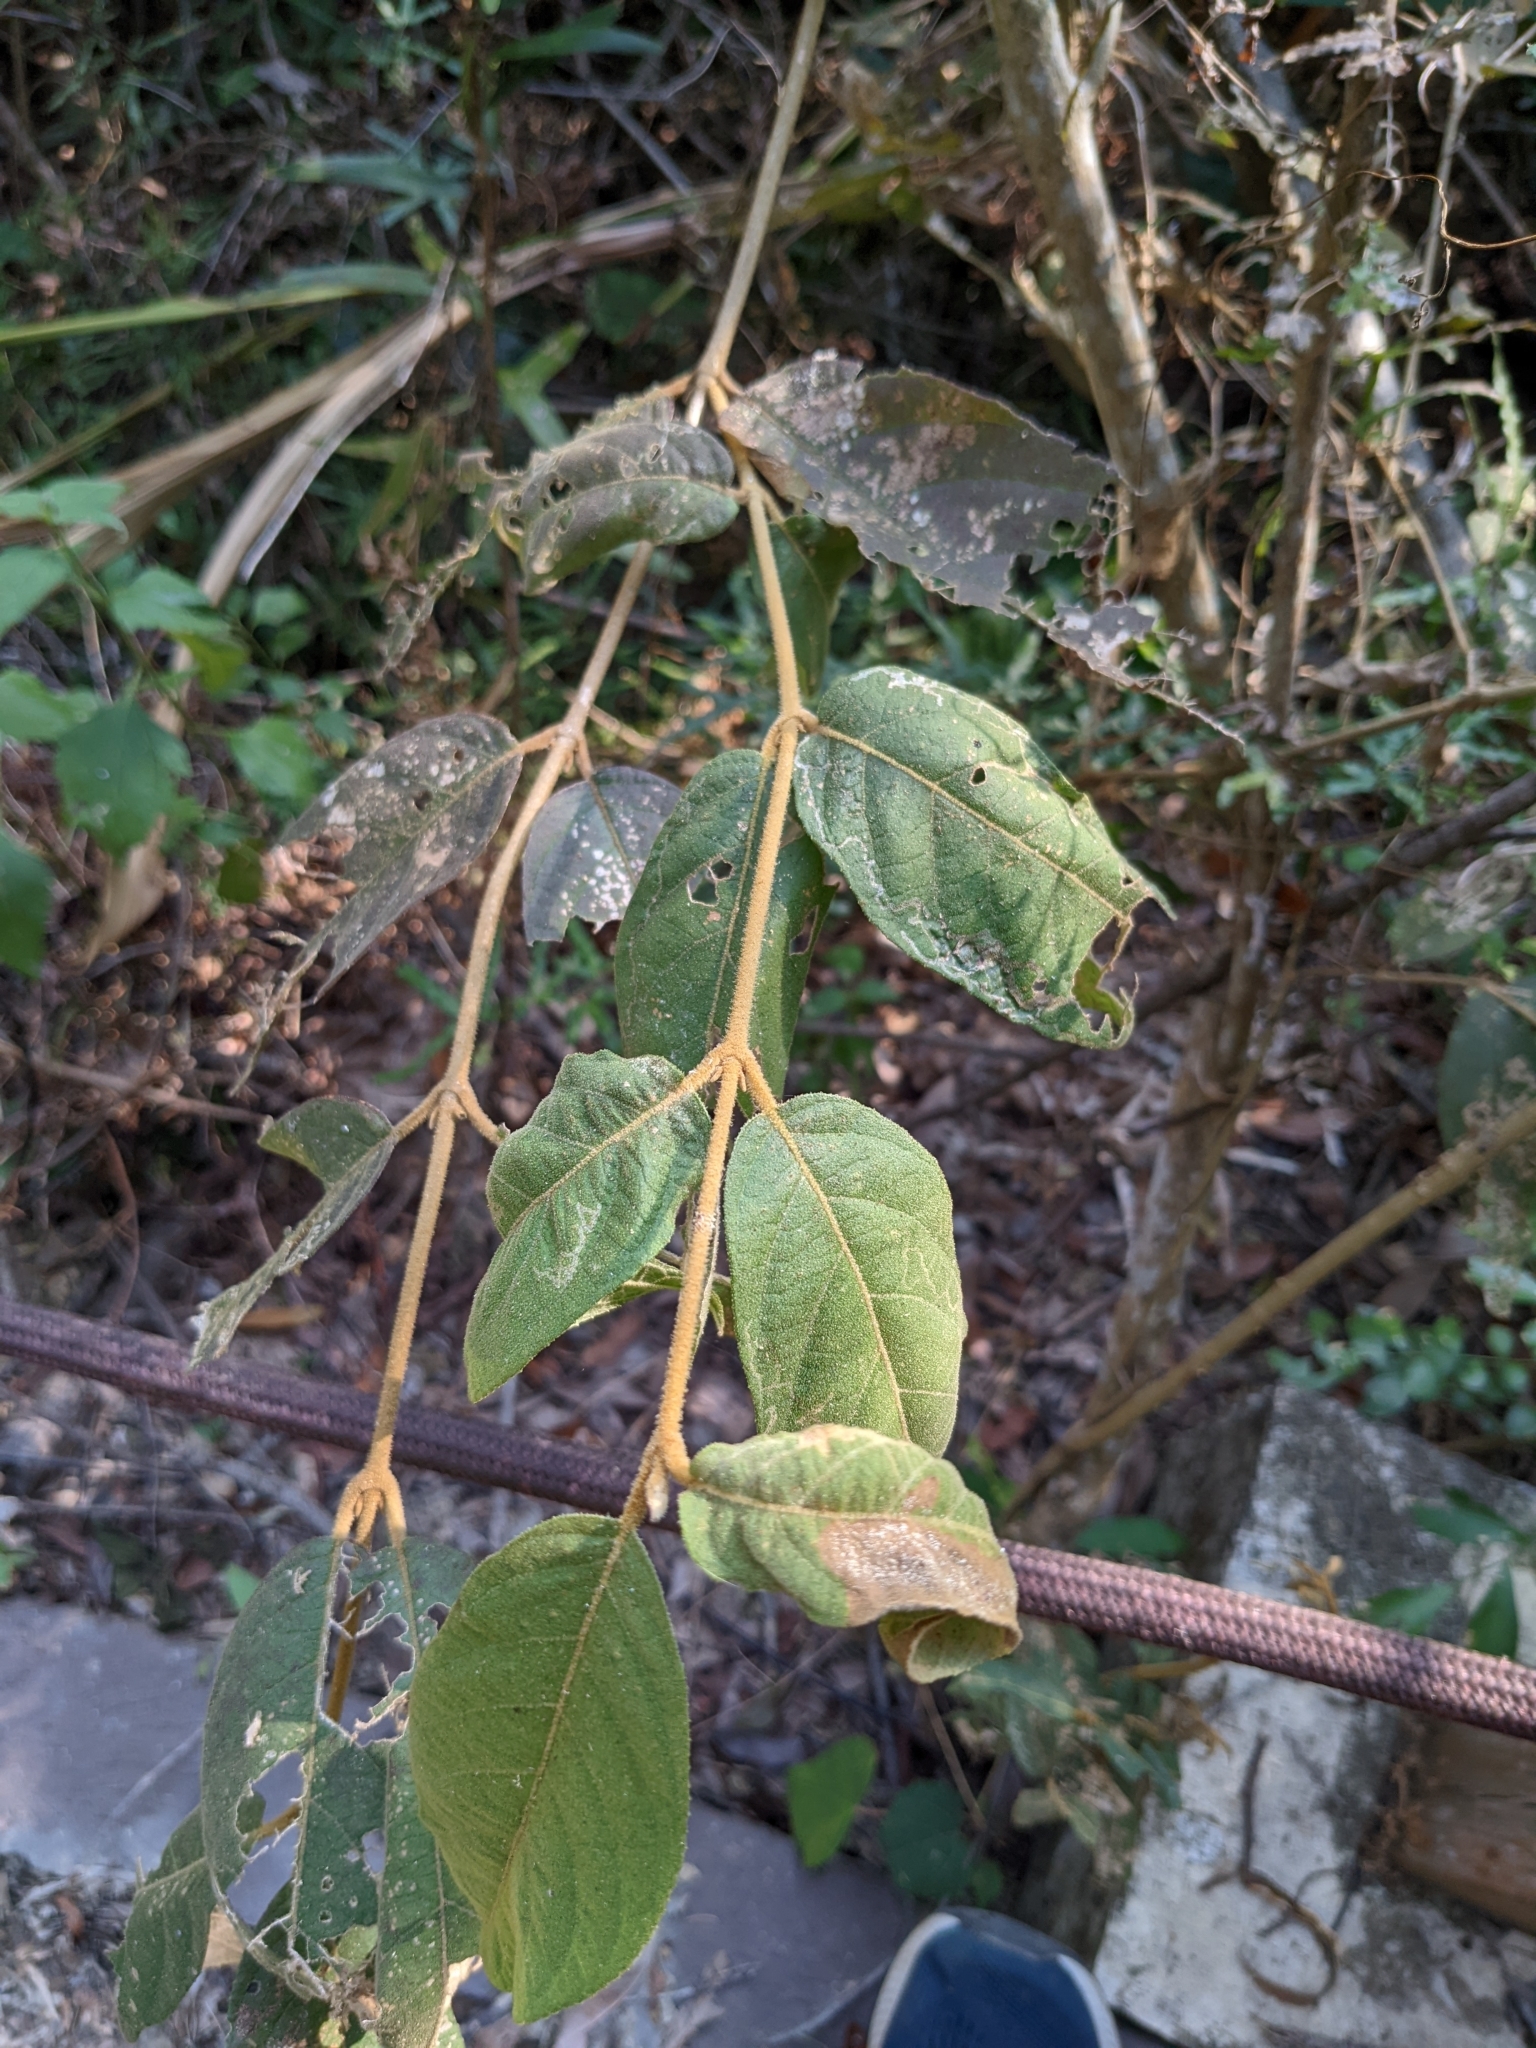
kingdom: Plantae
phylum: Tracheophyta
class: Magnoliopsida
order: Lamiales
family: Lamiaceae
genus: Callicarpa
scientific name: Callicarpa pedunculata
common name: Velvetleaf
